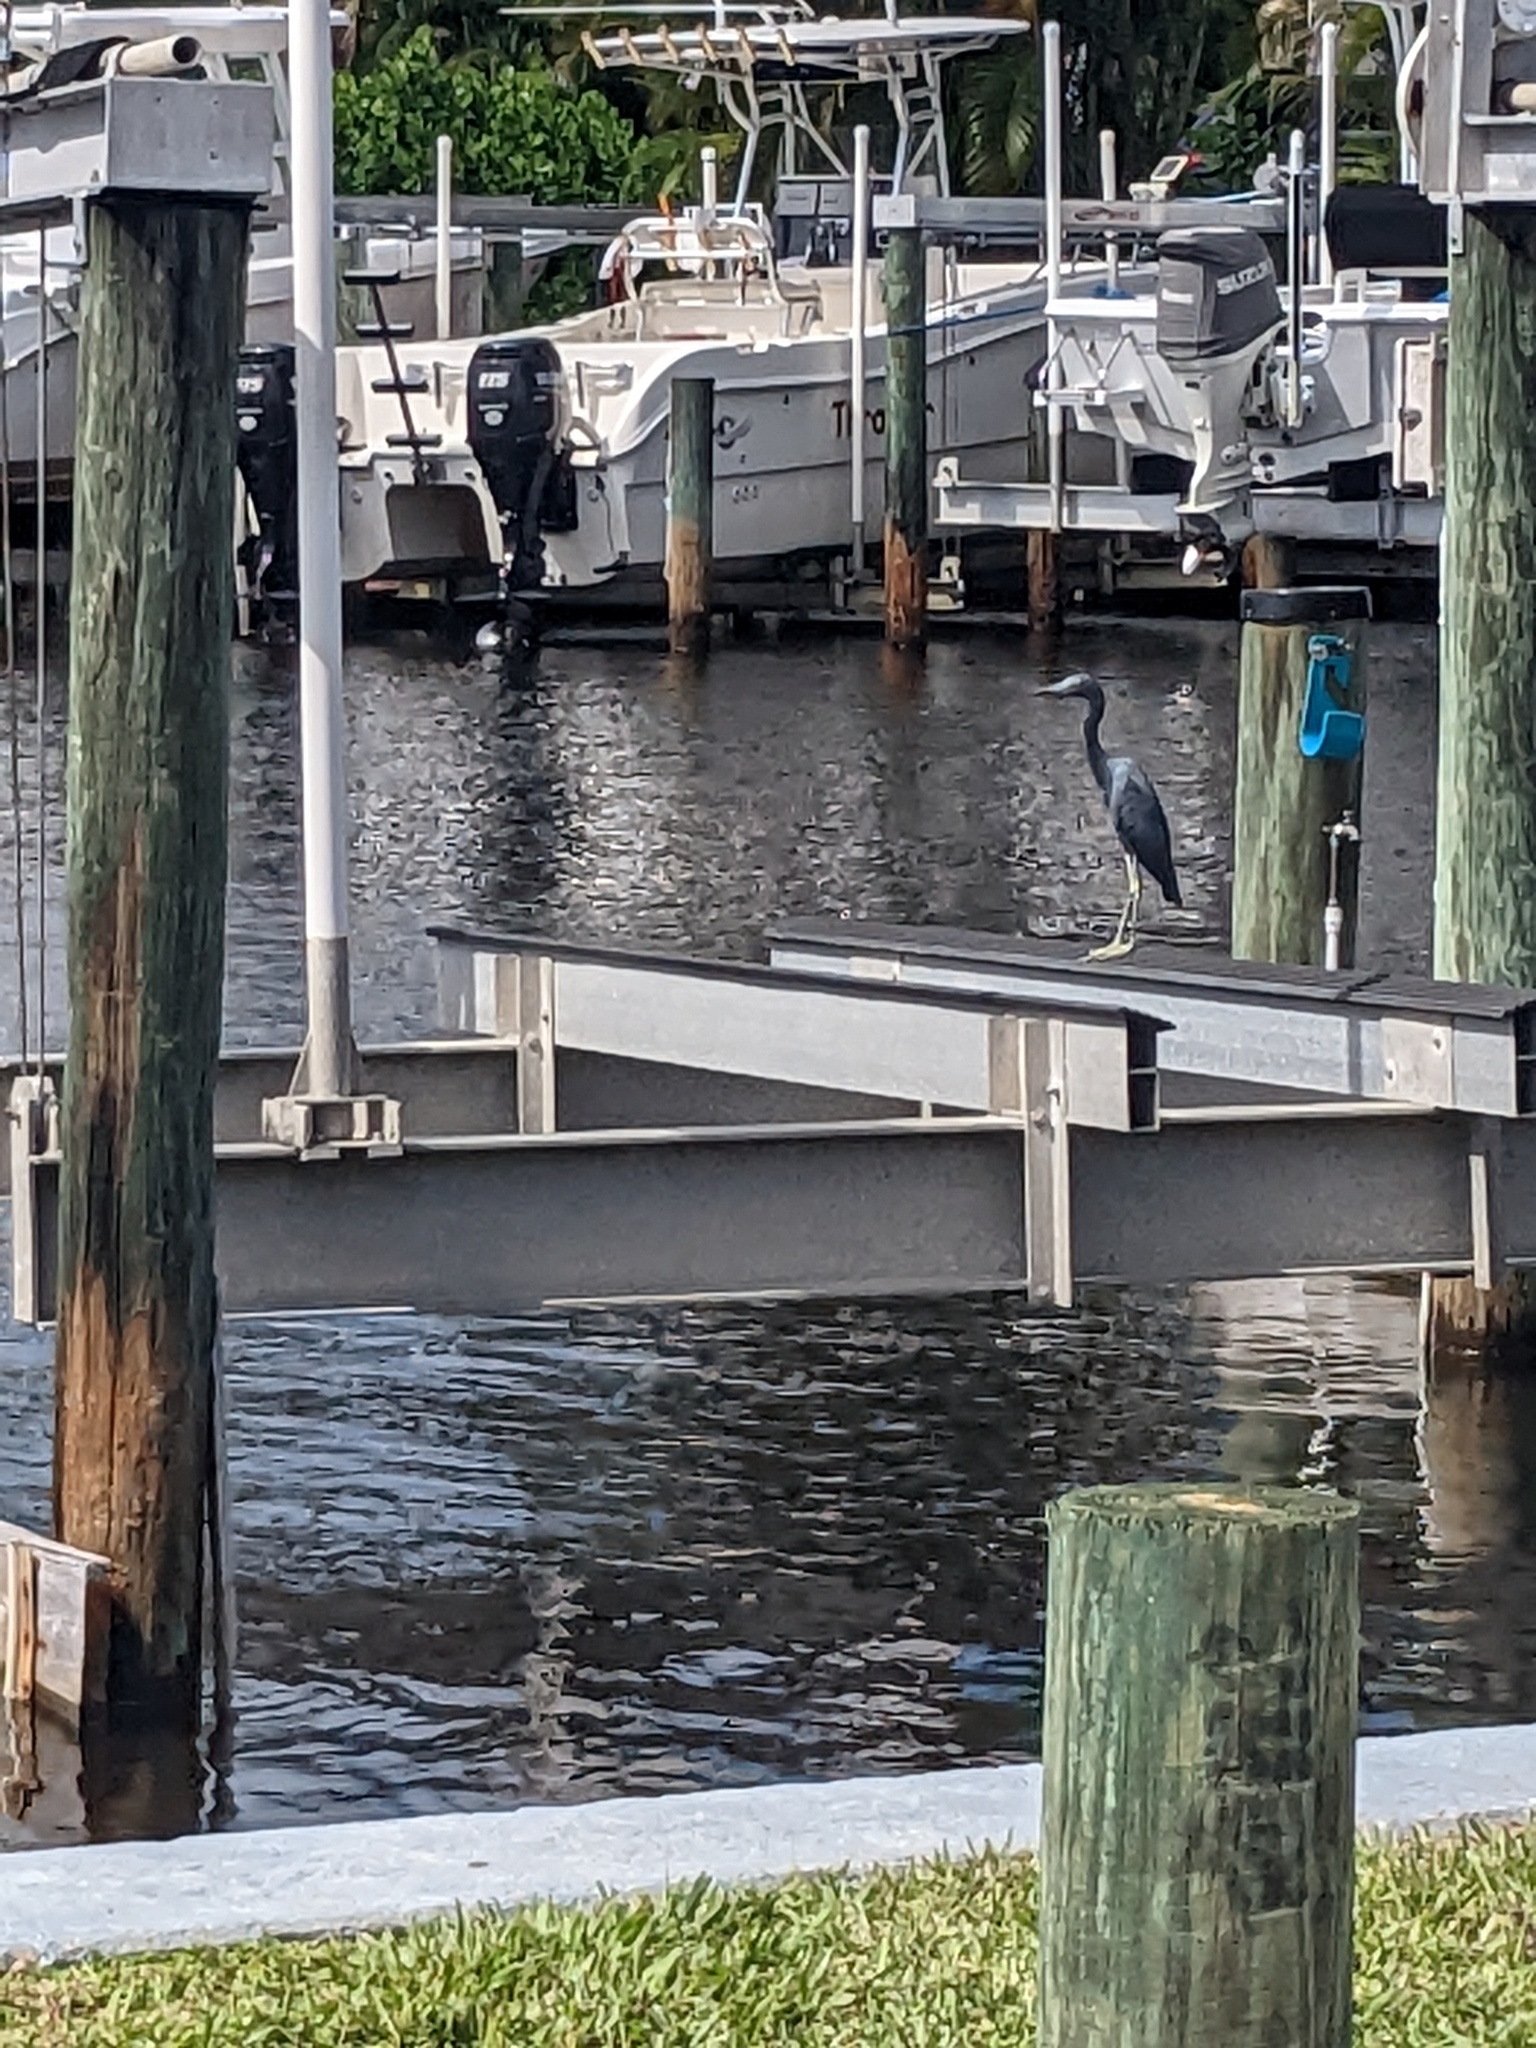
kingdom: Animalia
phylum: Chordata
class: Aves
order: Pelecaniformes
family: Ardeidae
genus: Egretta
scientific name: Egretta caerulea
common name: Little blue heron
